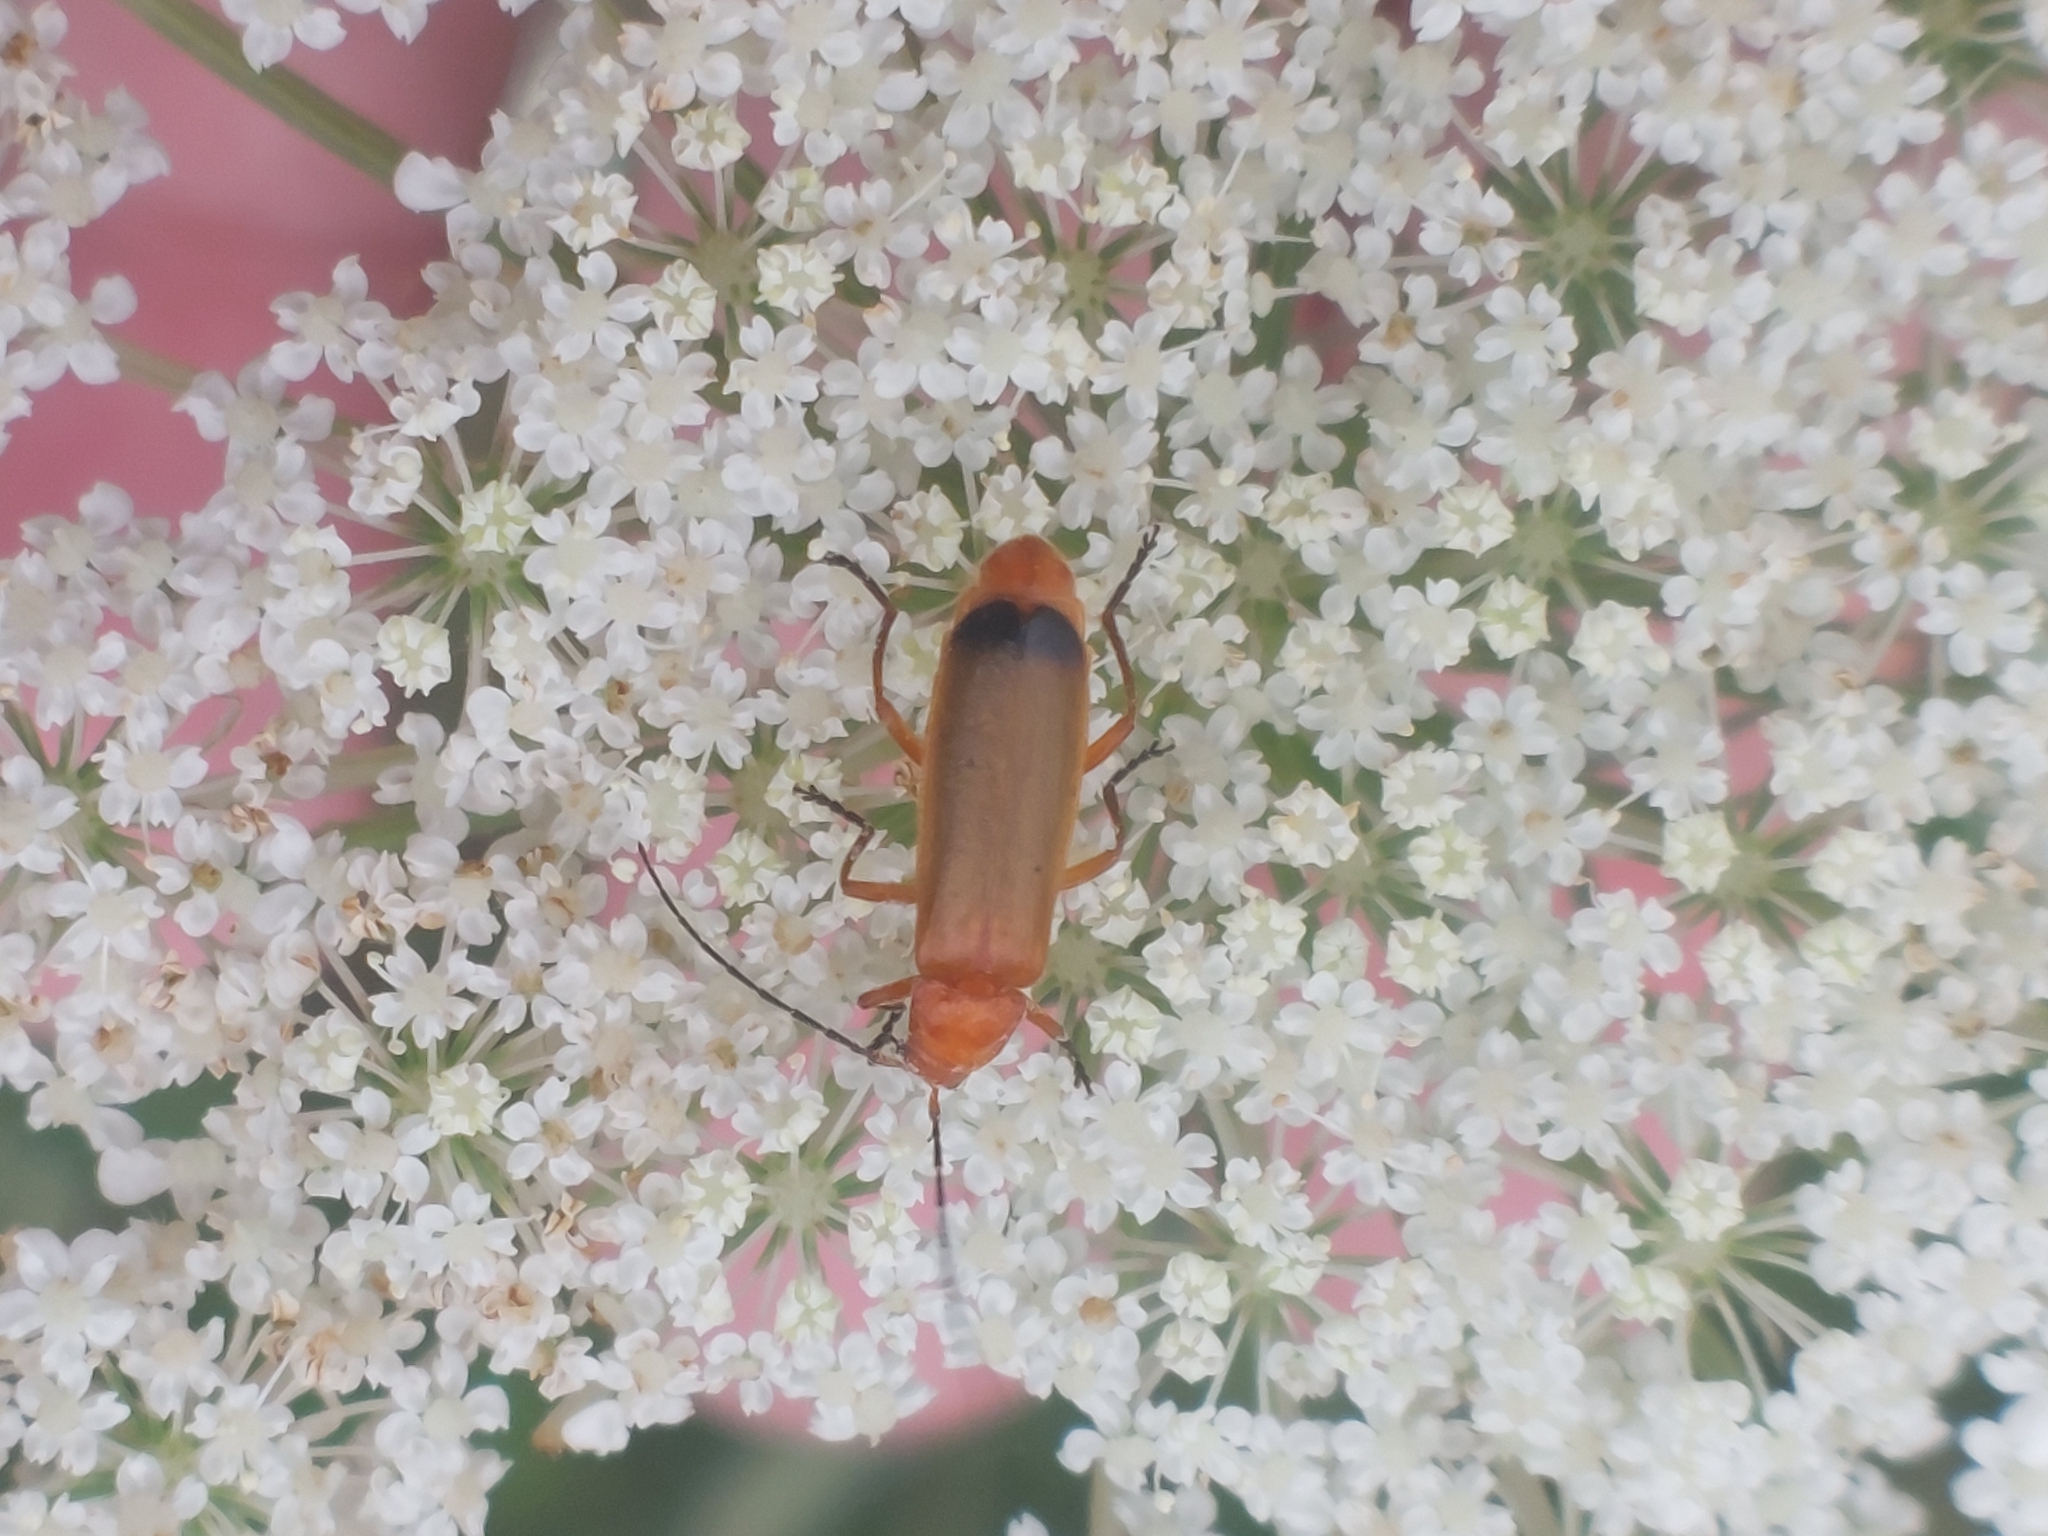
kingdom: Animalia
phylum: Arthropoda
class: Insecta
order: Coleoptera
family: Cantharidae
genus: Rhagonycha
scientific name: Rhagonycha fulva
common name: Common red soldier beetle
